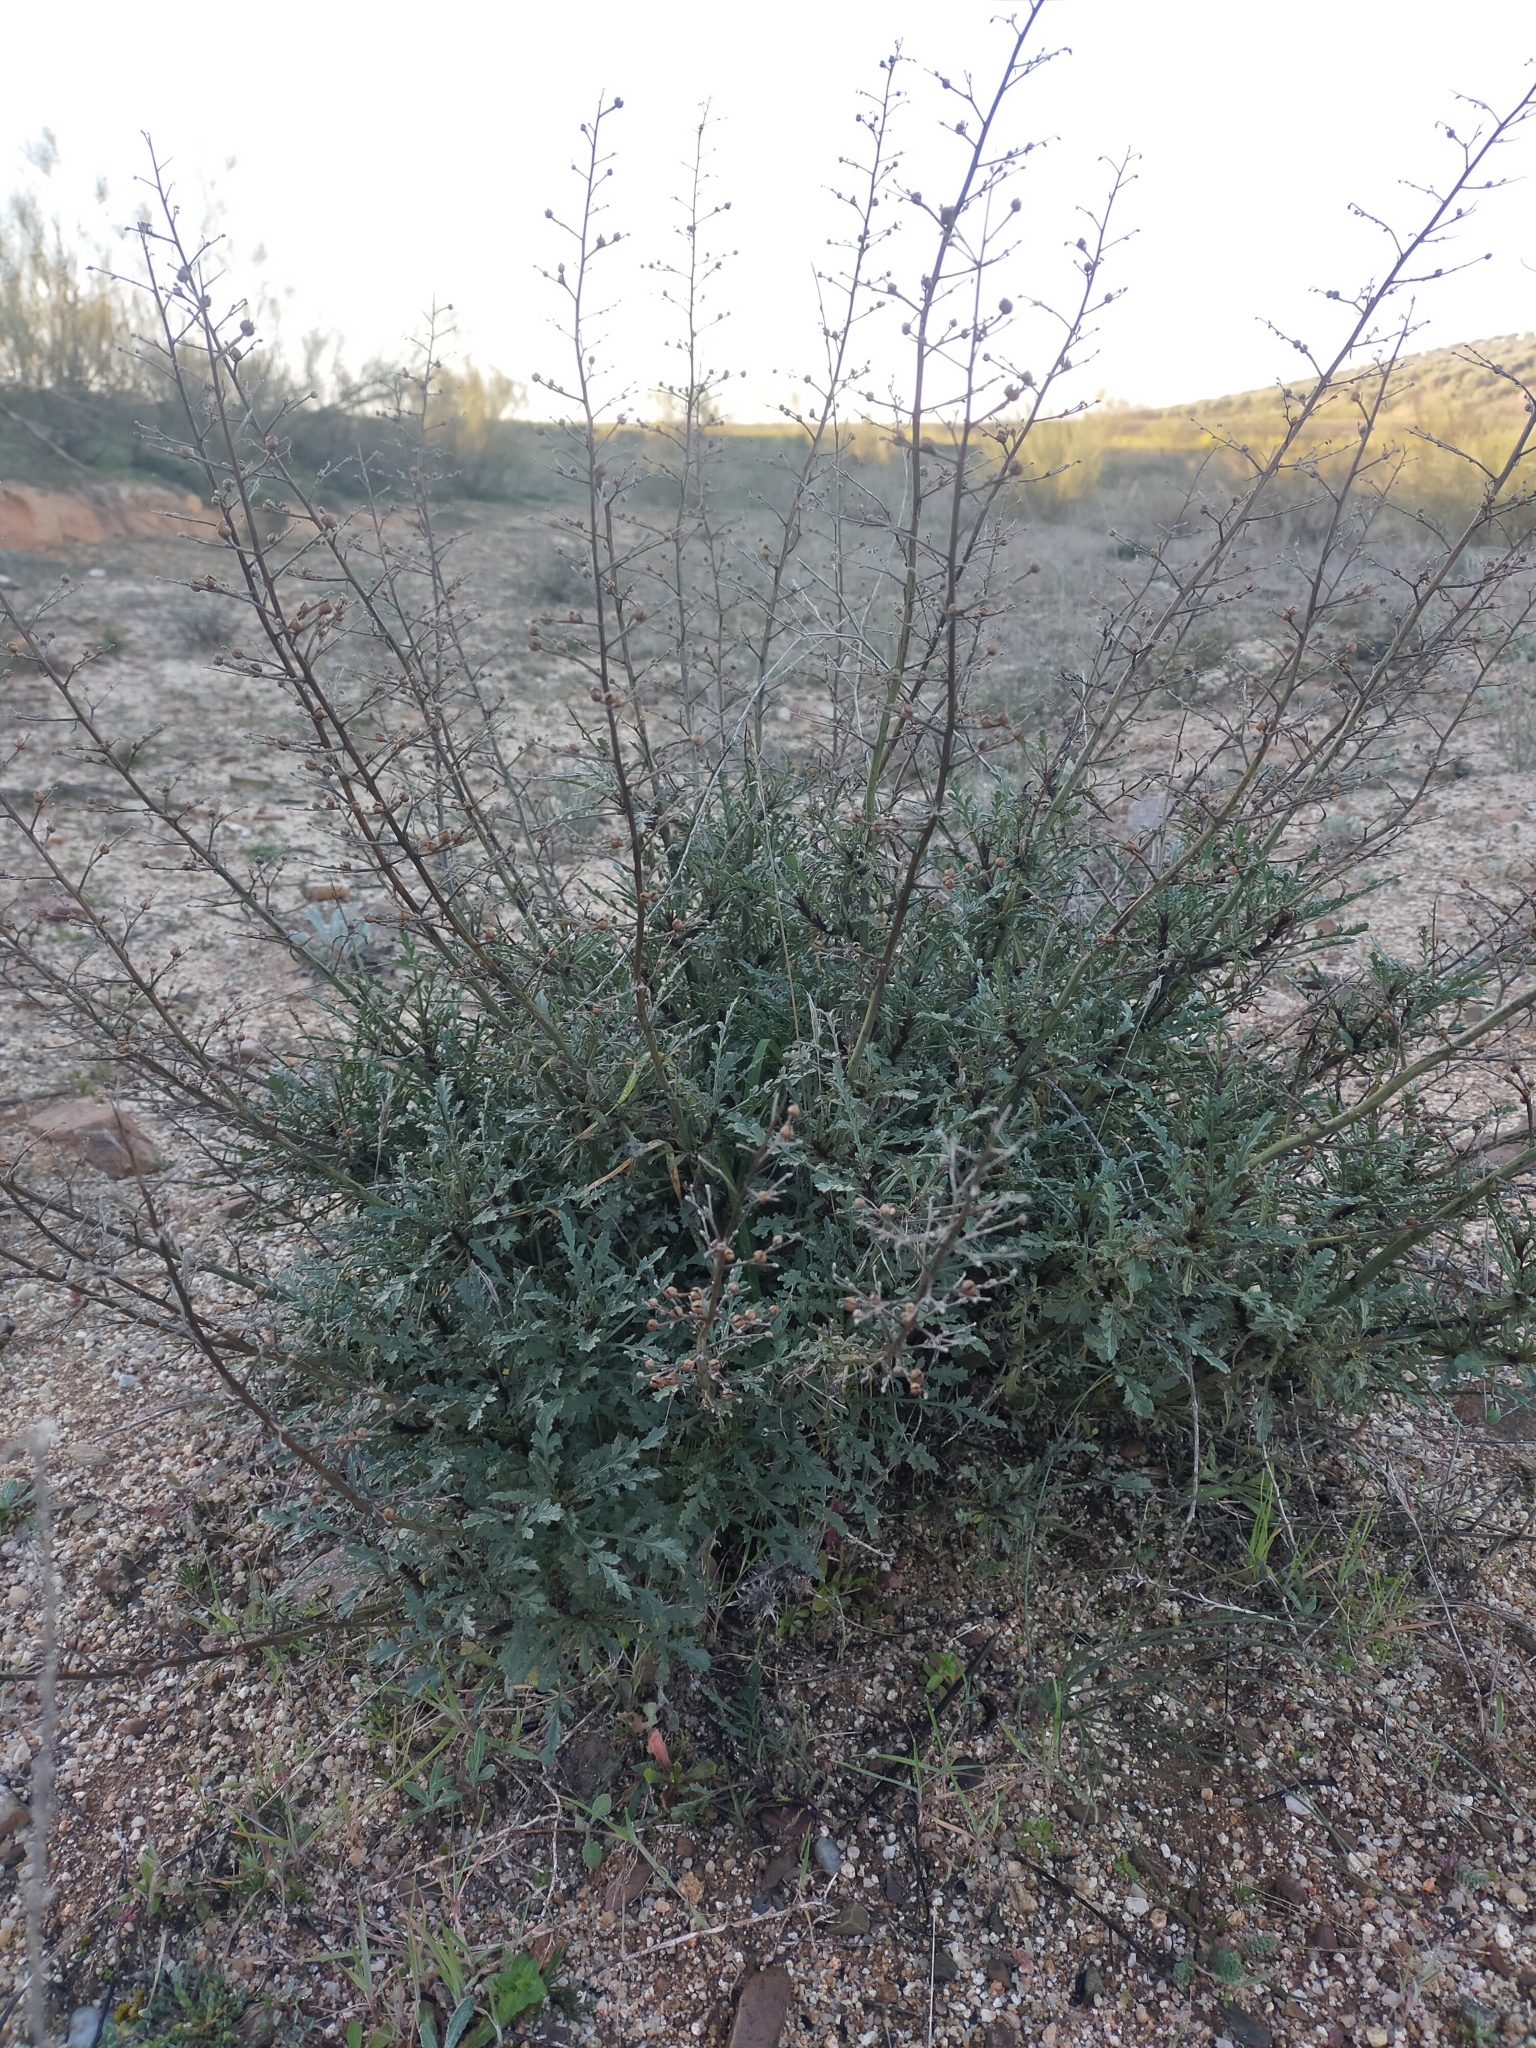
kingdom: Plantae
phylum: Tracheophyta
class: Magnoliopsida
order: Lamiales
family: Scrophulariaceae
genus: Scrophularia
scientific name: Scrophularia canina
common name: French figwort
